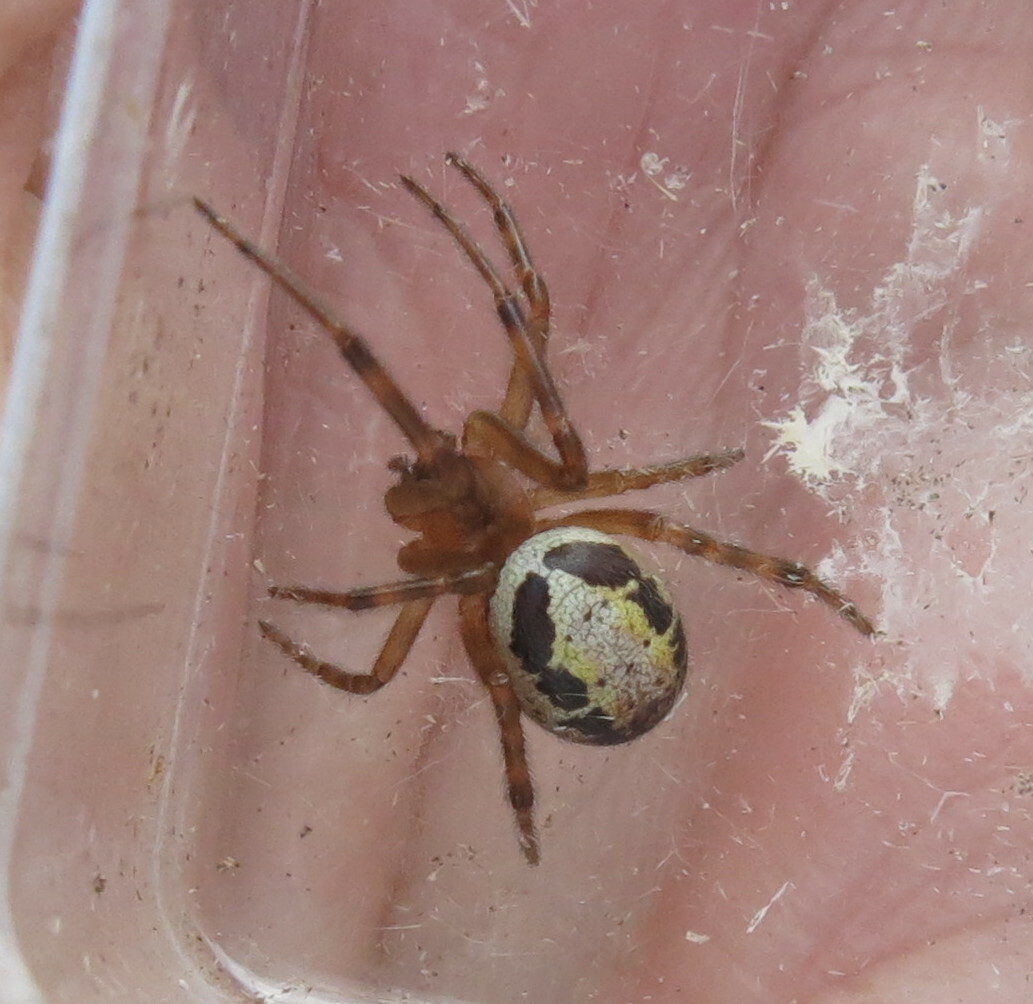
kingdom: Animalia
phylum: Arthropoda
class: Arachnida
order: Araneae
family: Theridiidae
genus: Steatoda
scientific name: Steatoda nobilis
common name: Cobweb weaver
